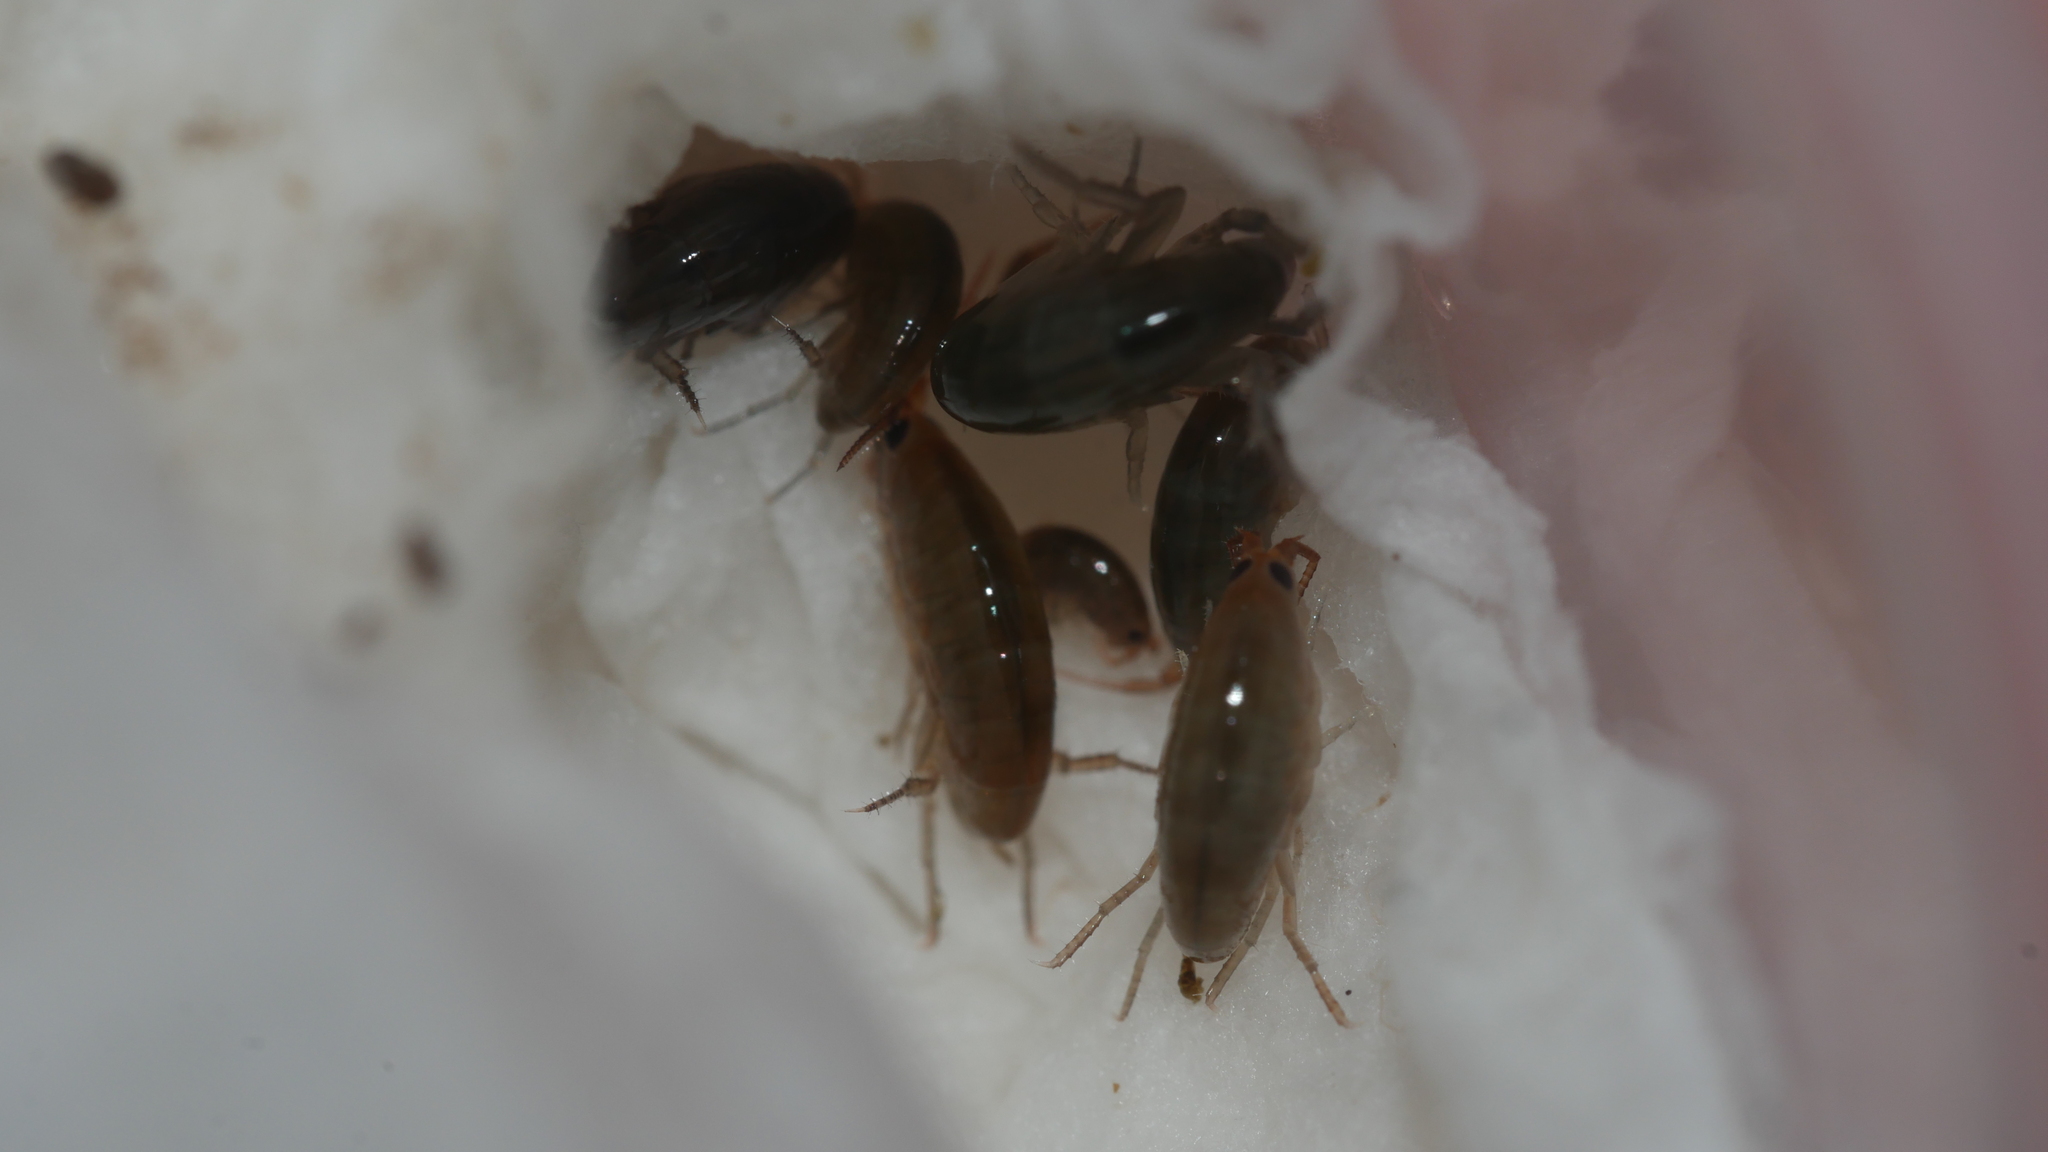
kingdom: Animalia
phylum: Arthropoda
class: Malacostraca
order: Amphipoda
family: Talitridae
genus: Speziorchestia
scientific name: Speziorchestia grillus
